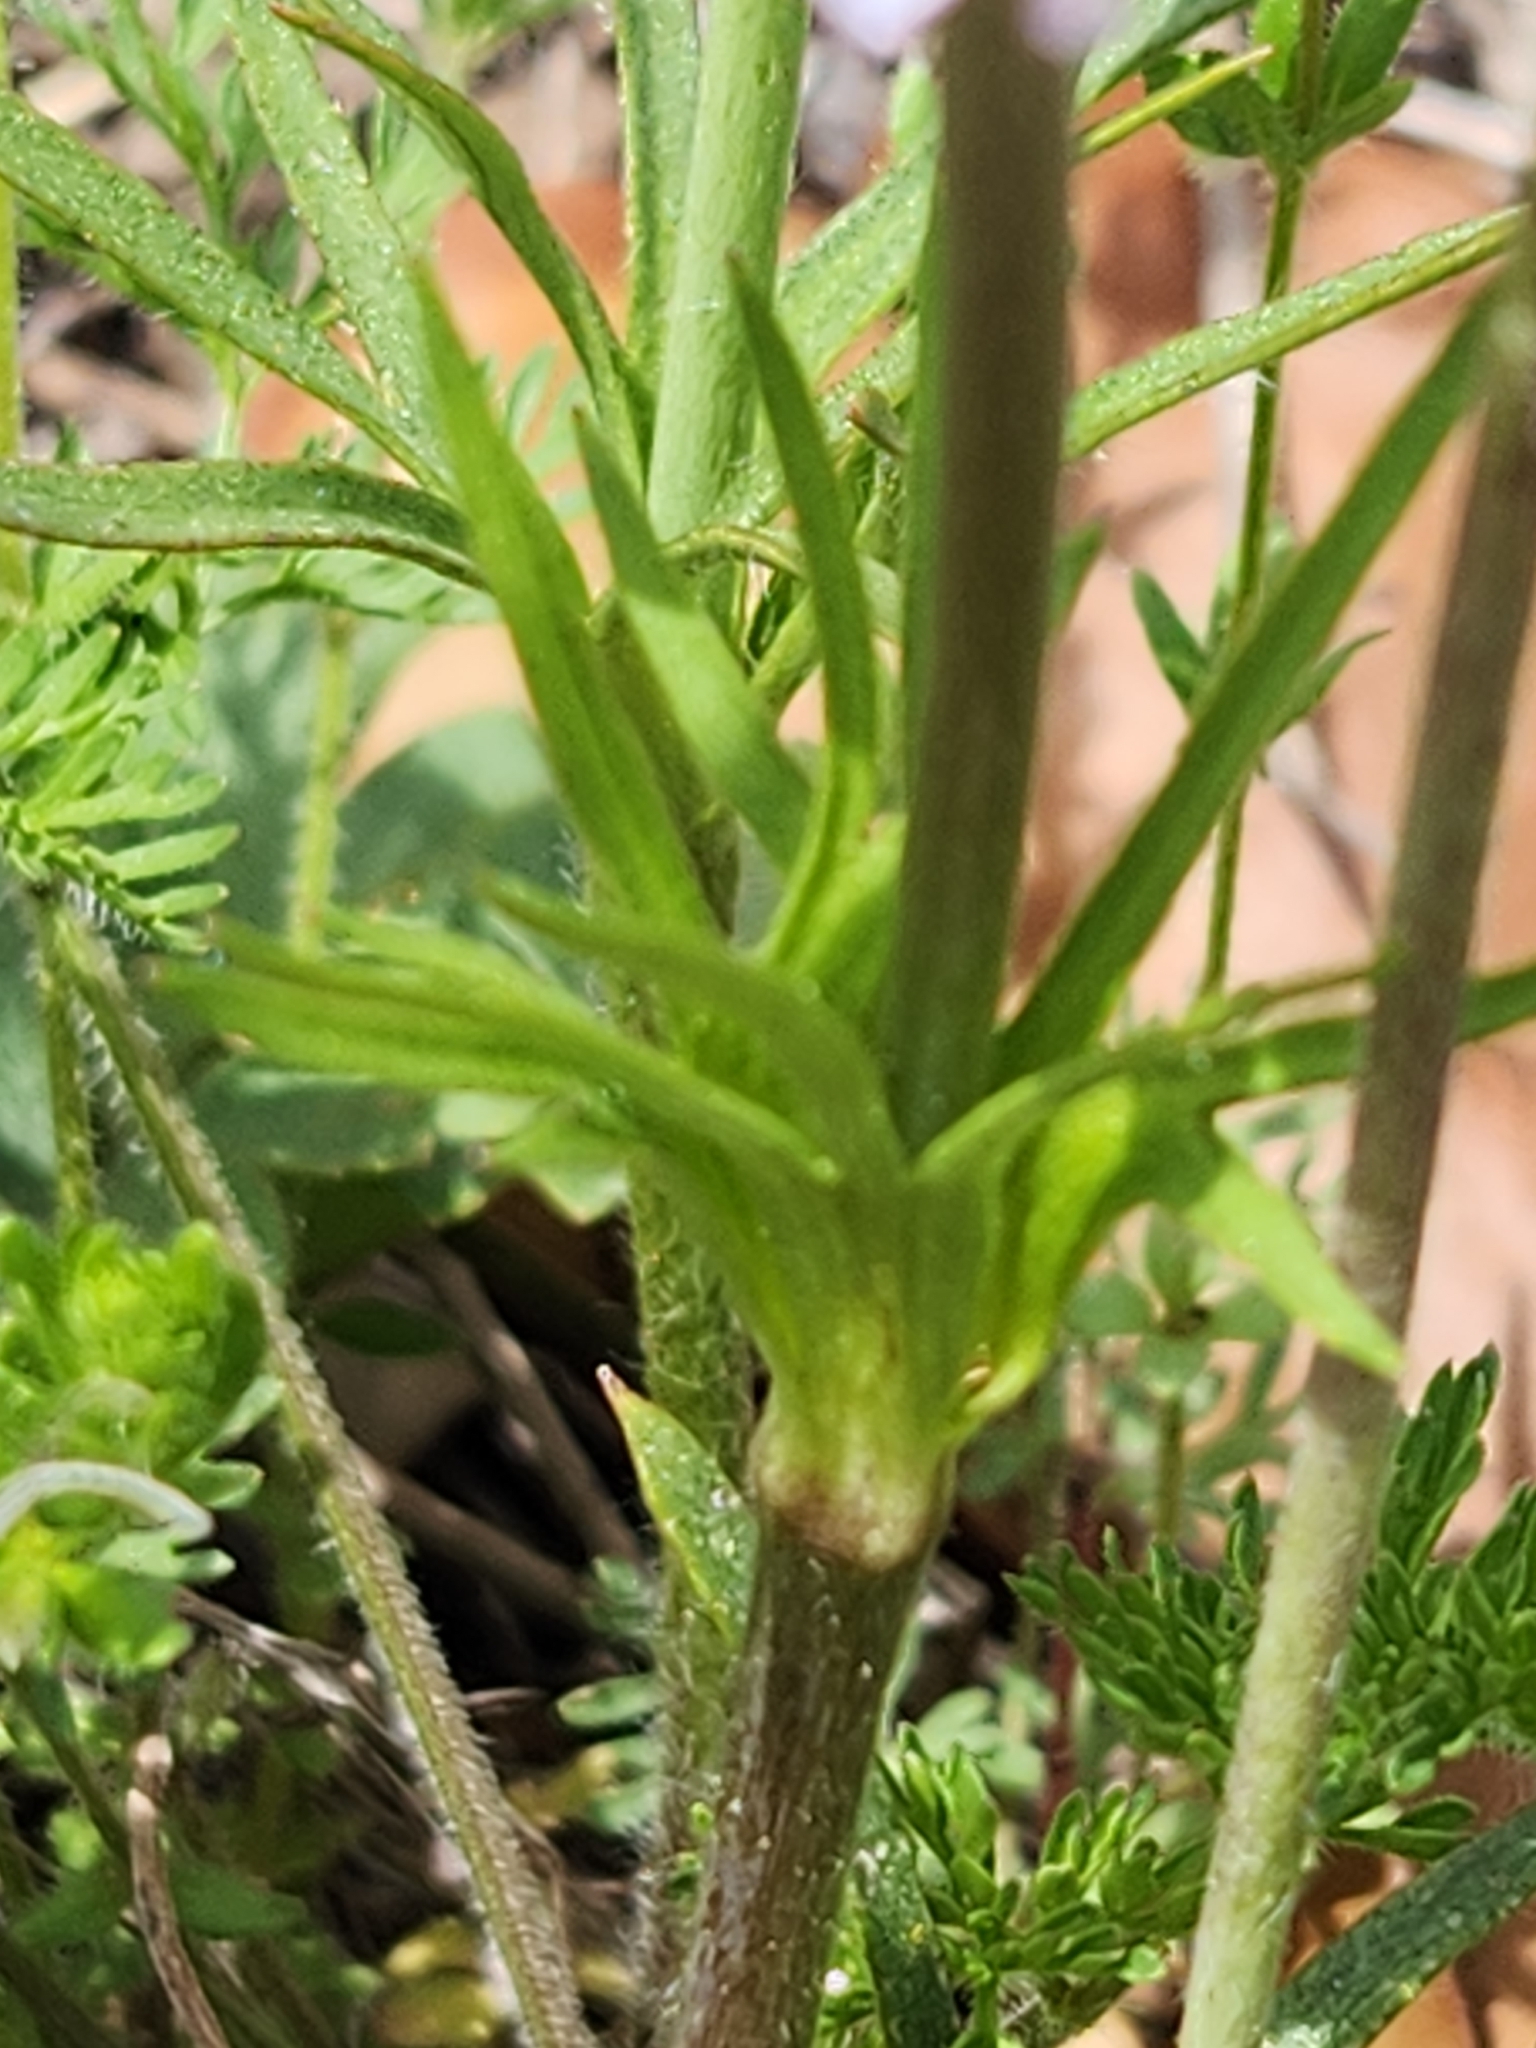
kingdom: Plantae
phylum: Tracheophyta
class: Magnoliopsida
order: Ranunculales
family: Ranunculaceae
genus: Anemone
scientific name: Anemone berlandieri
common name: Ten-petal anemone
